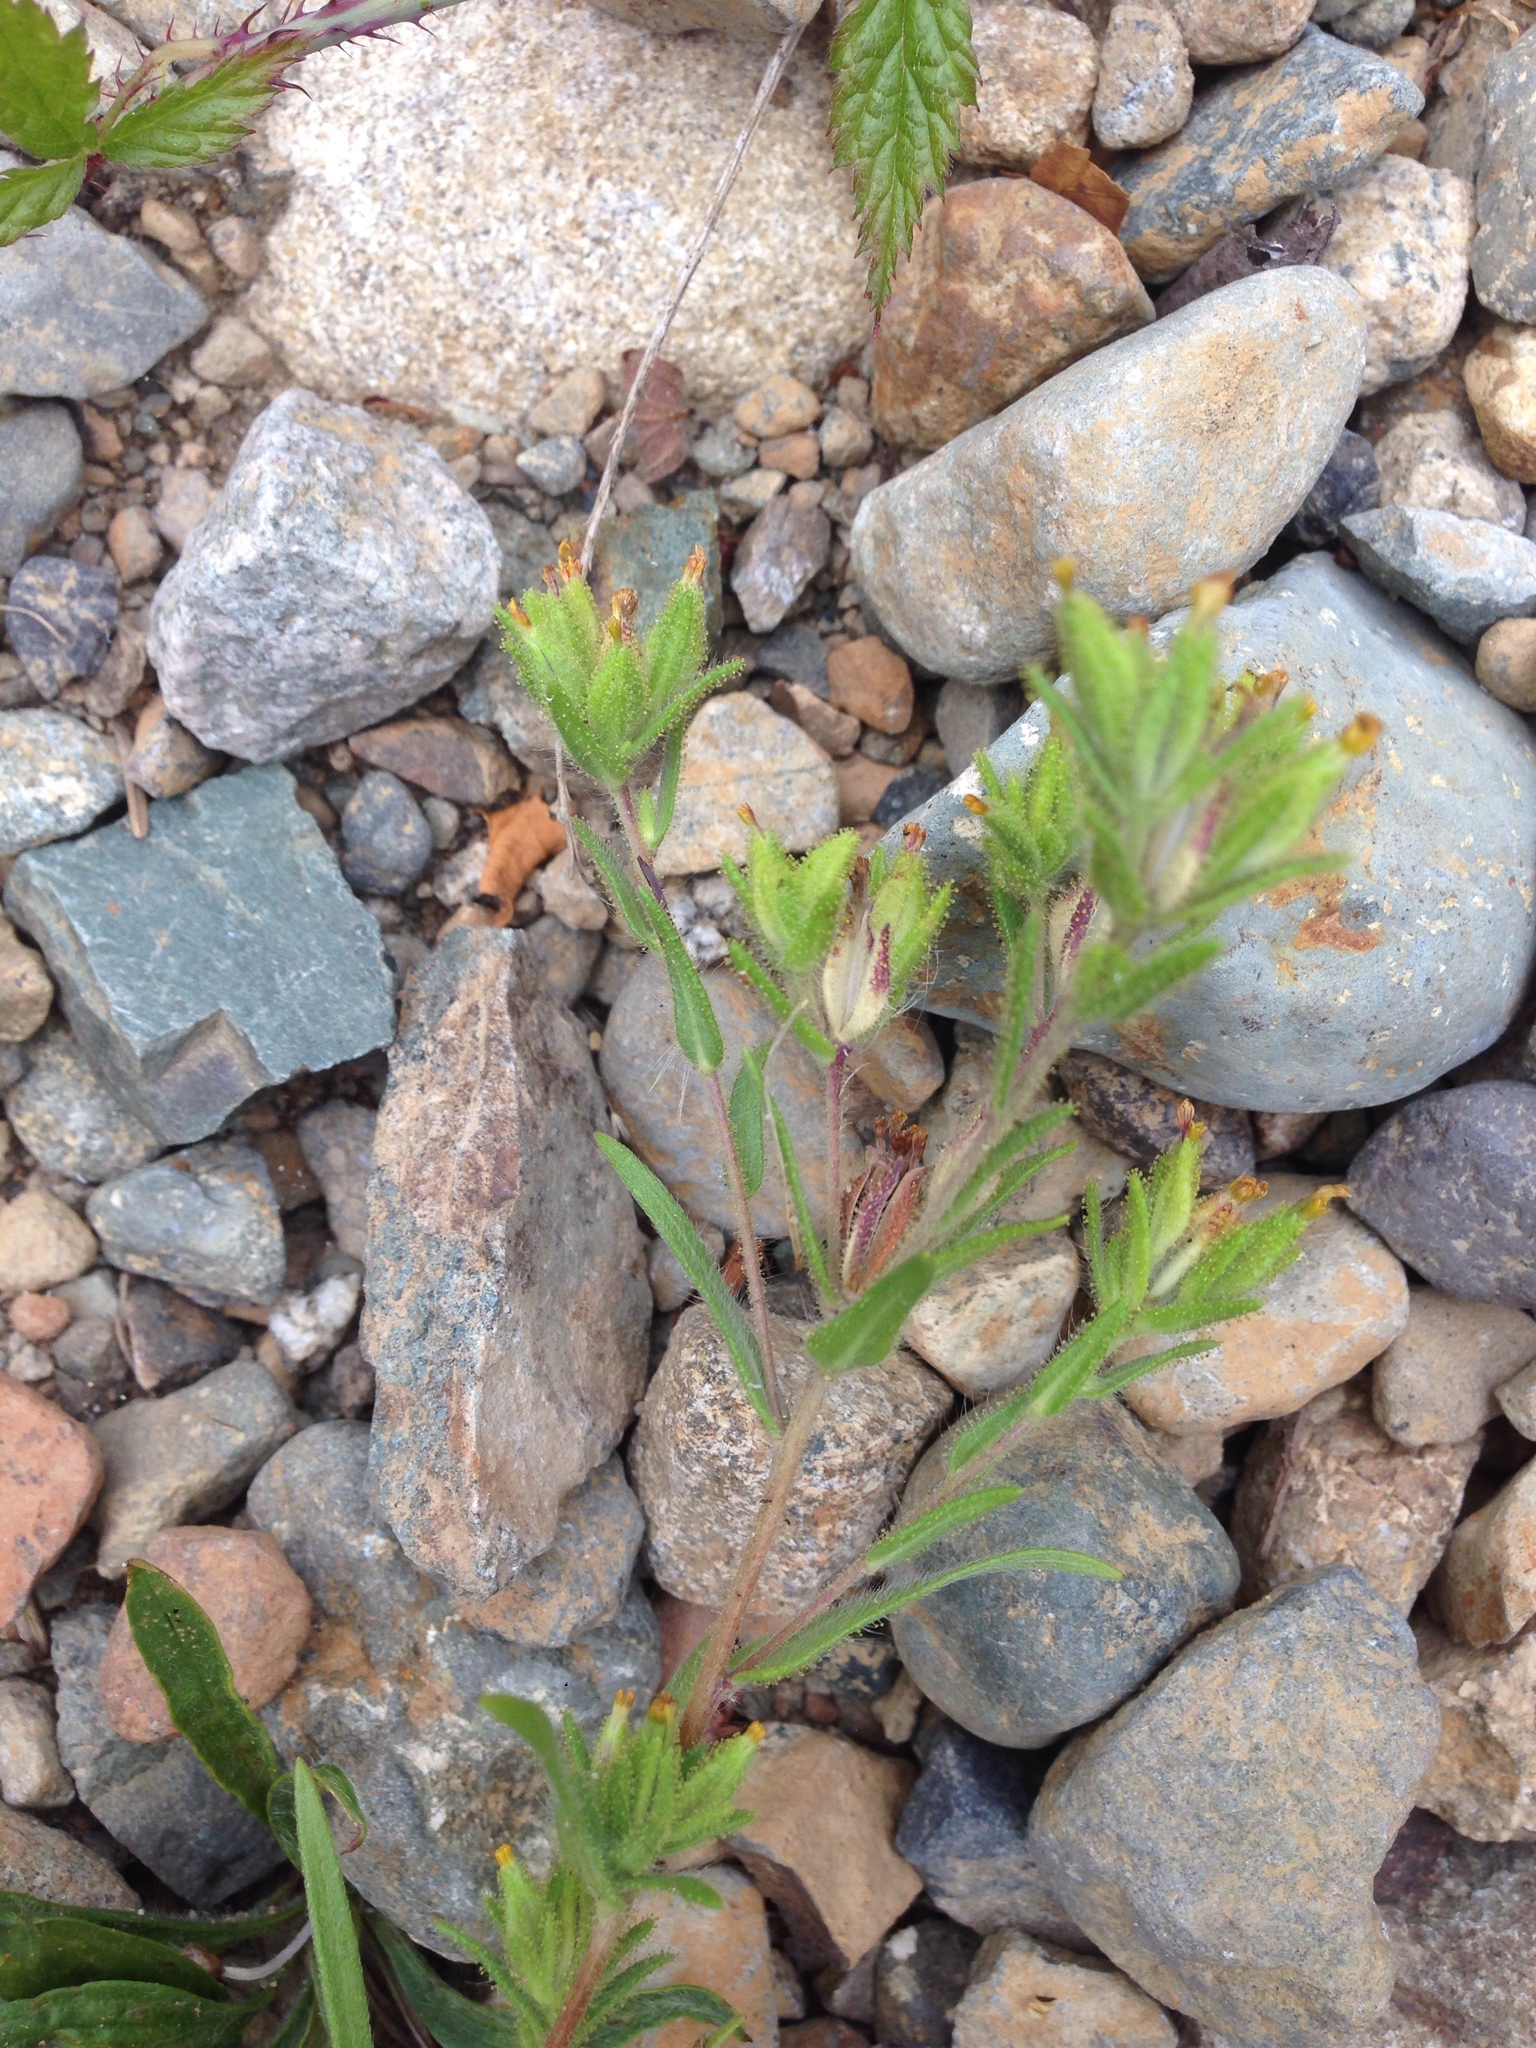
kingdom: Plantae
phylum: Tracheophyta
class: Magnoliopsida
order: Asterales
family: Asteraceae
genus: Madia
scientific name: Madia glomerata
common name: Mountain tarweed
